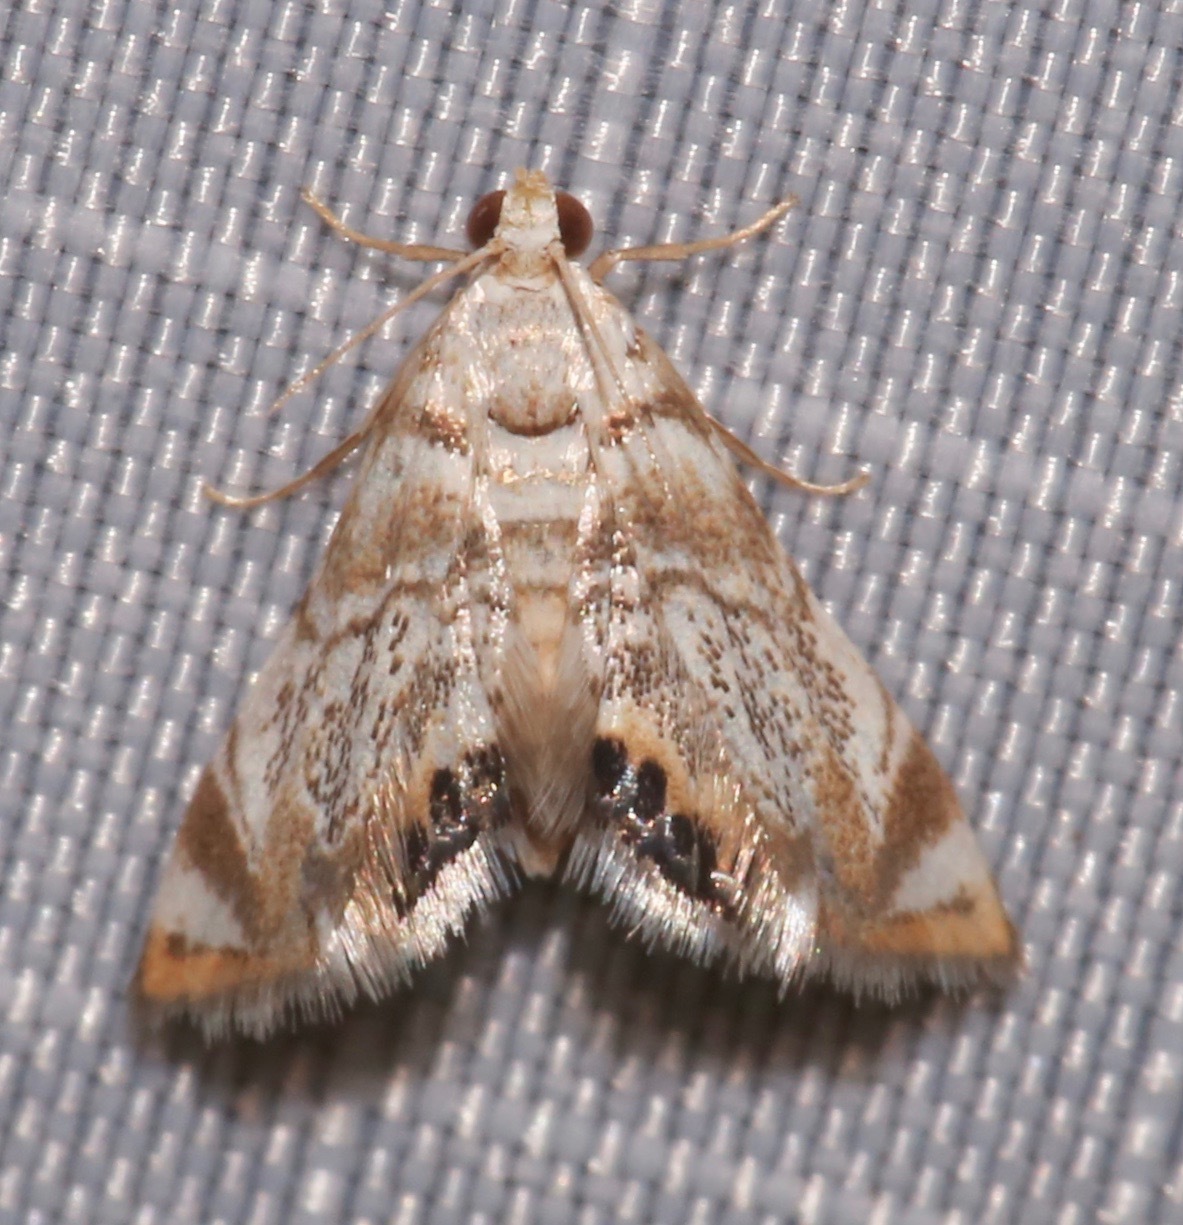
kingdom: Animalia
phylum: Arthropoda
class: Insecta
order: Lepidoptera
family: Crambidae
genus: Eoparargyractis
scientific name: Eoparargyractis irroratalis
